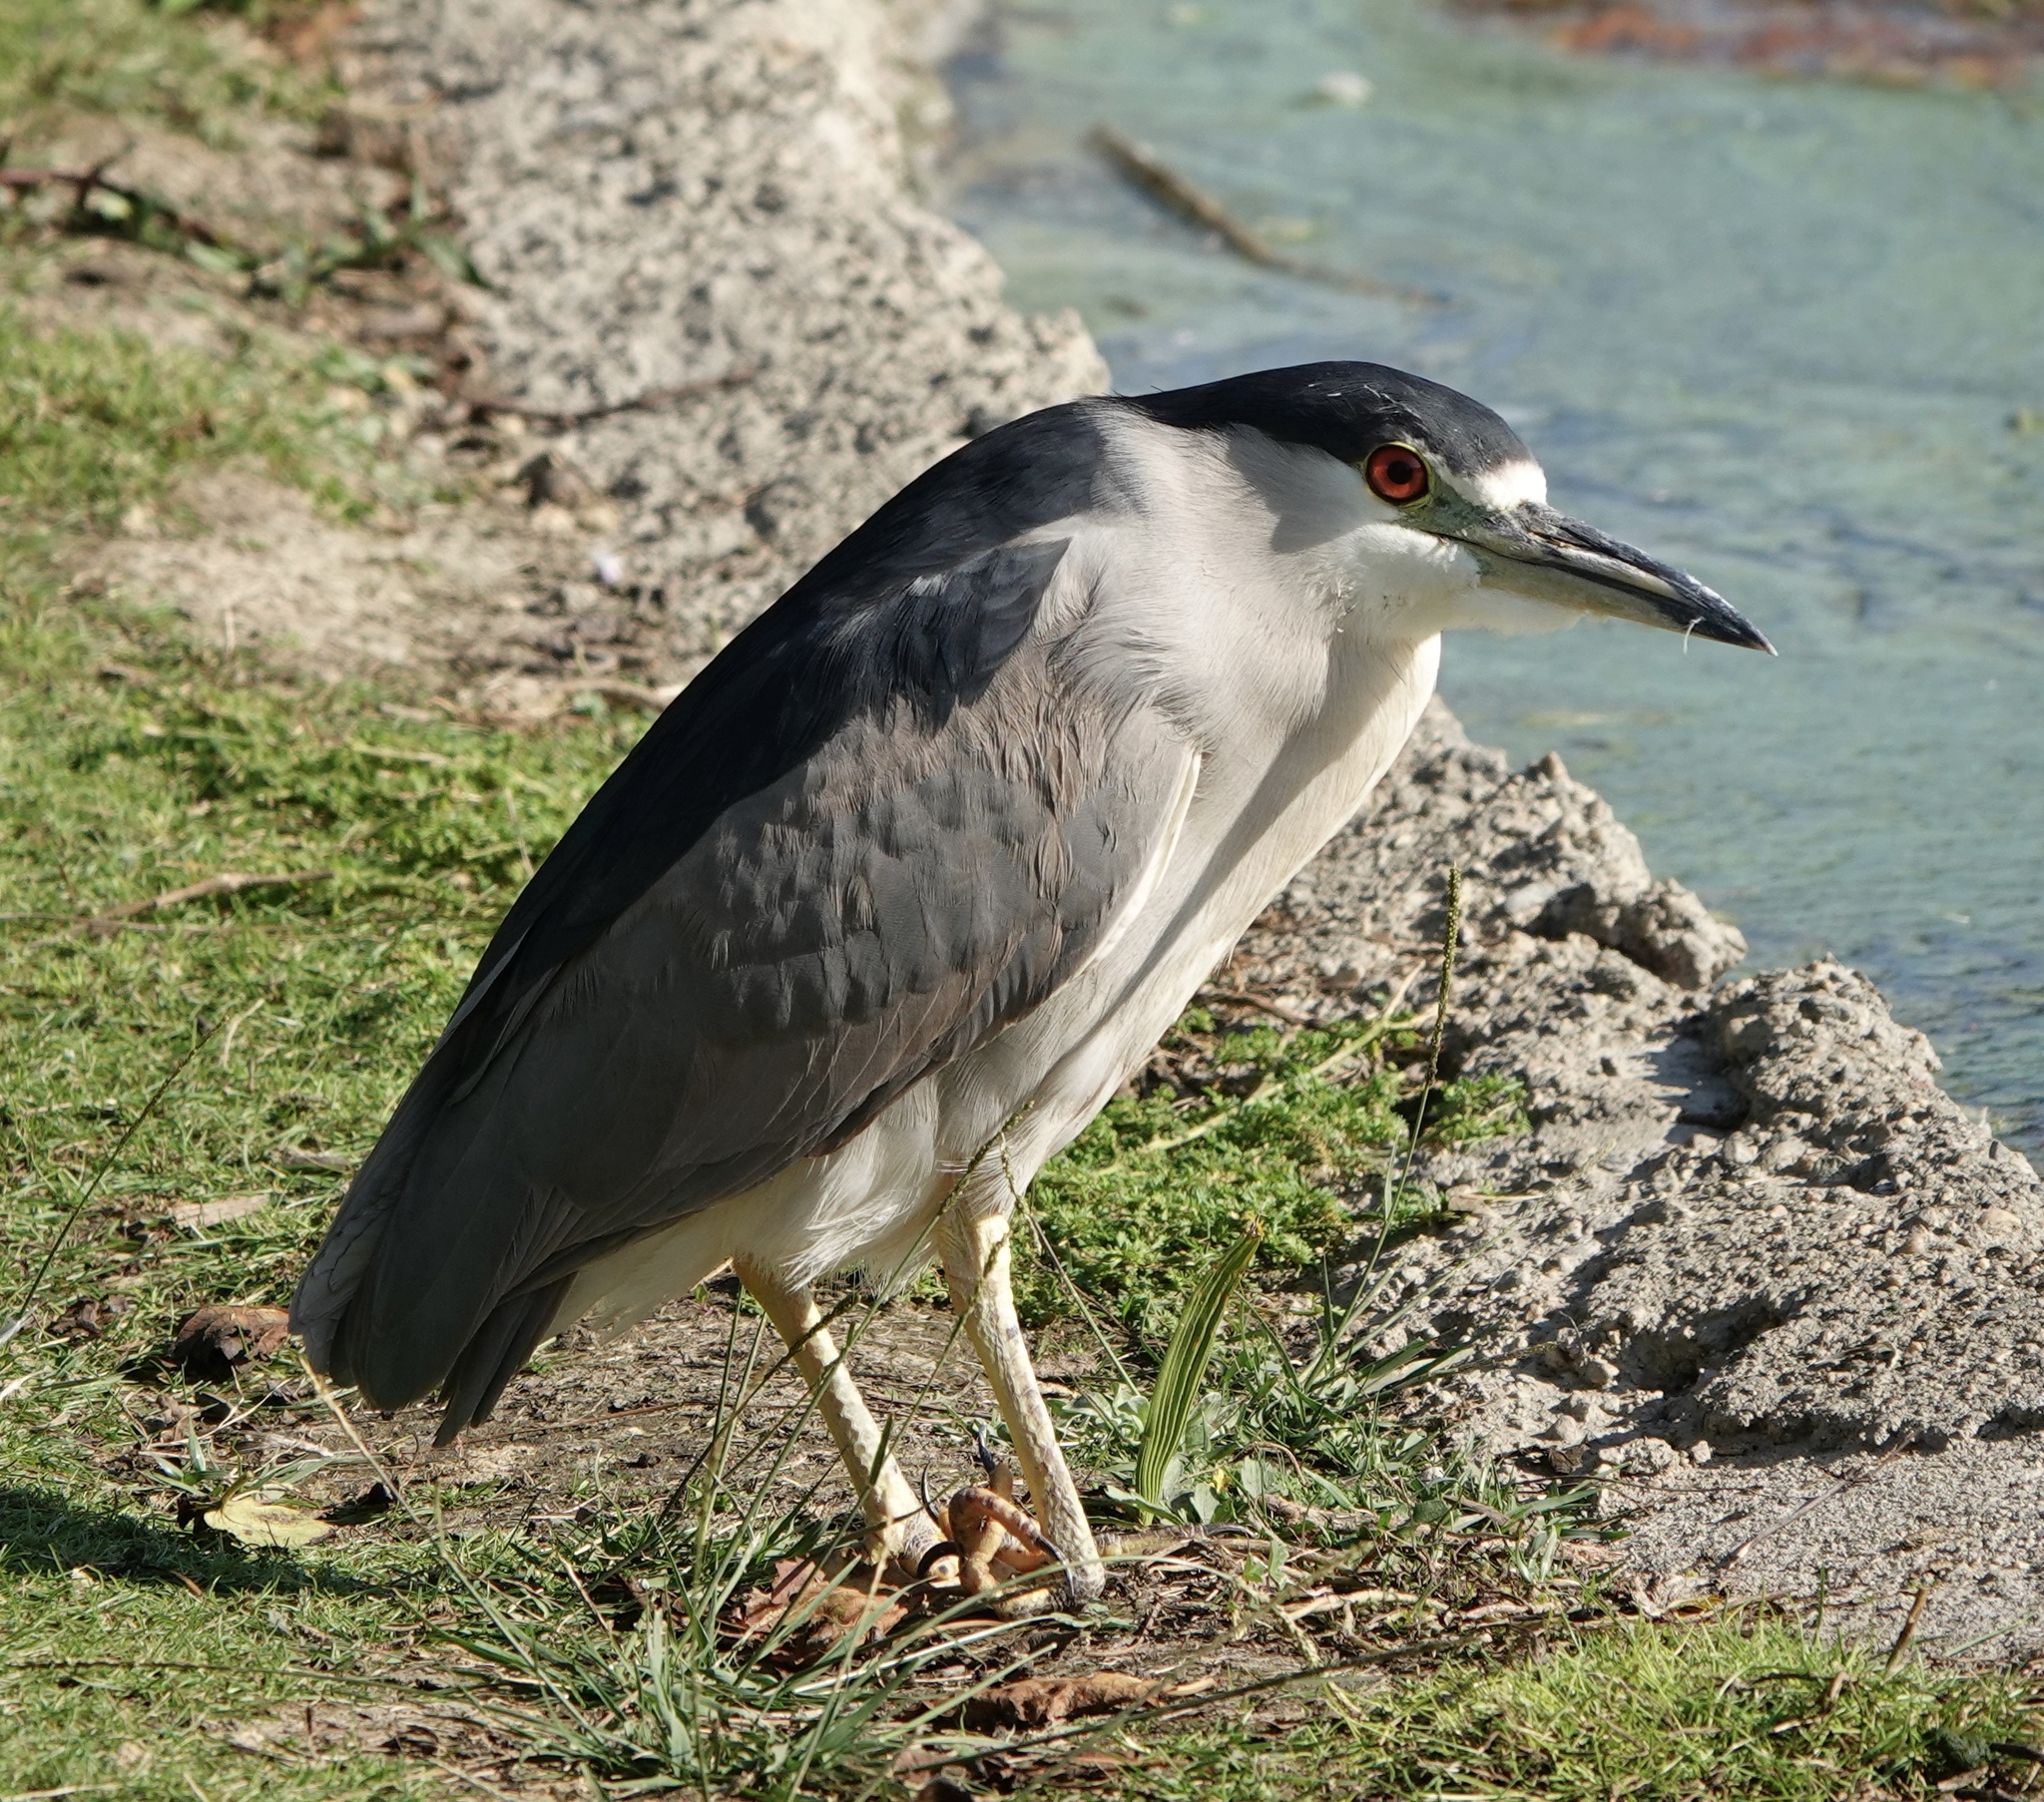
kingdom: Animalia
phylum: Chordata
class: Aves
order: Pelecaniformes
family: Ardeidae
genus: Nycticorax
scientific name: Nycticorax nycticorax
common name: Black-crowned night heron
